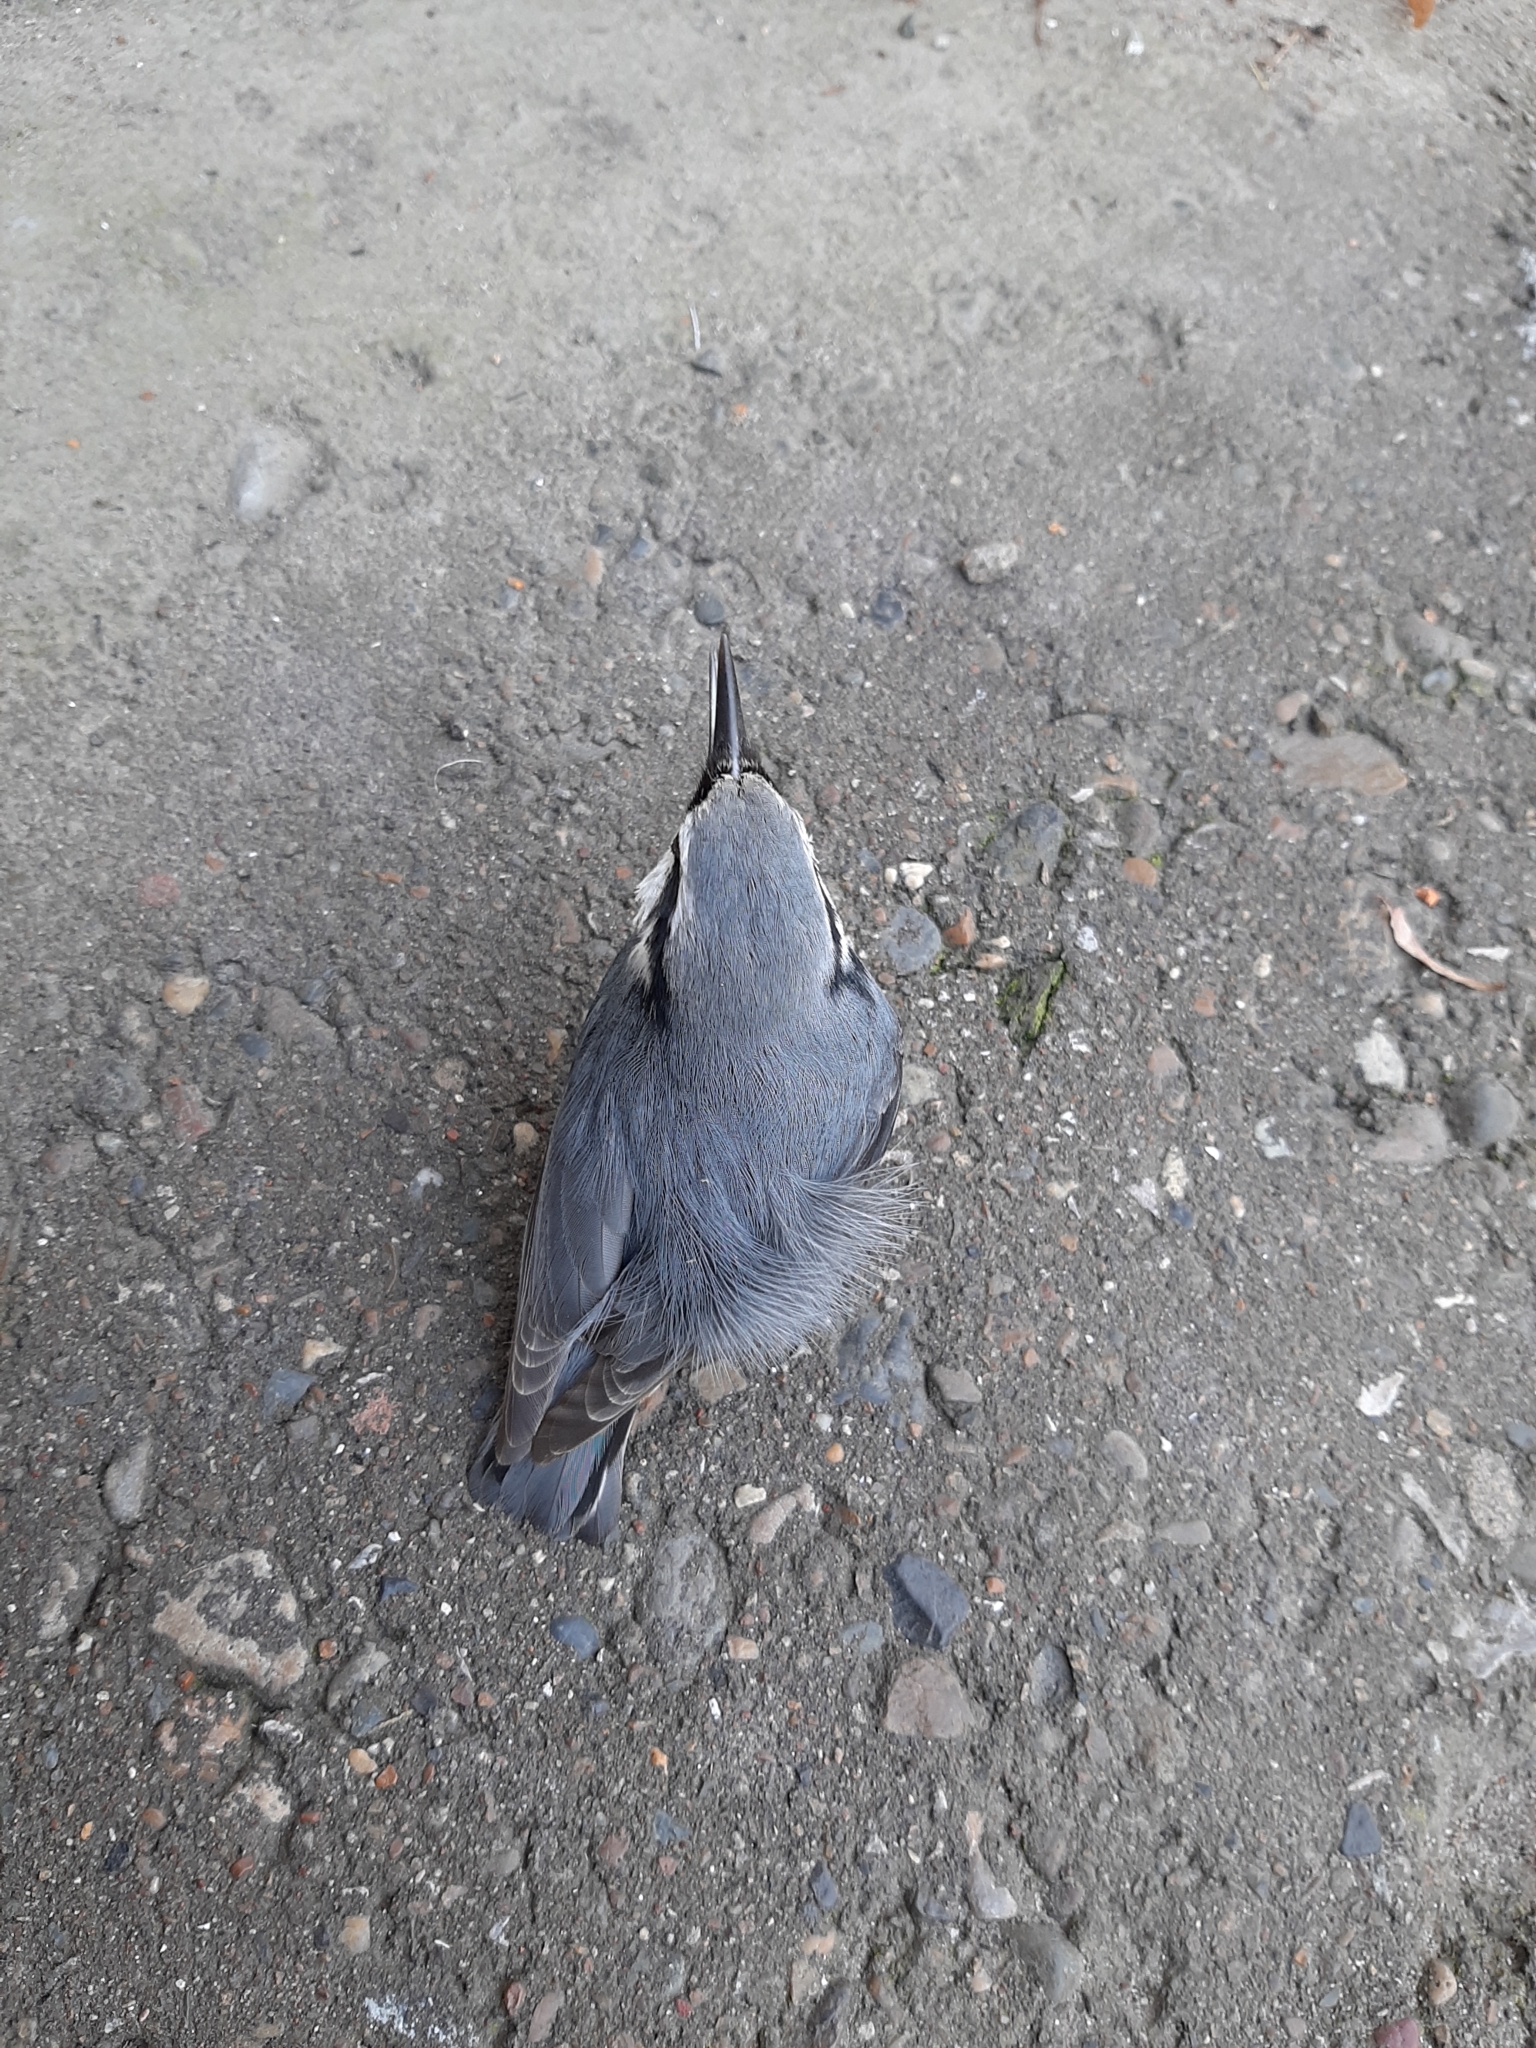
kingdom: Animalia
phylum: Chordata
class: Aves
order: Passeriformes
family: Sittidae
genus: Sitta
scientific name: Sitta europaea
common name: Eurasian nuthatch
